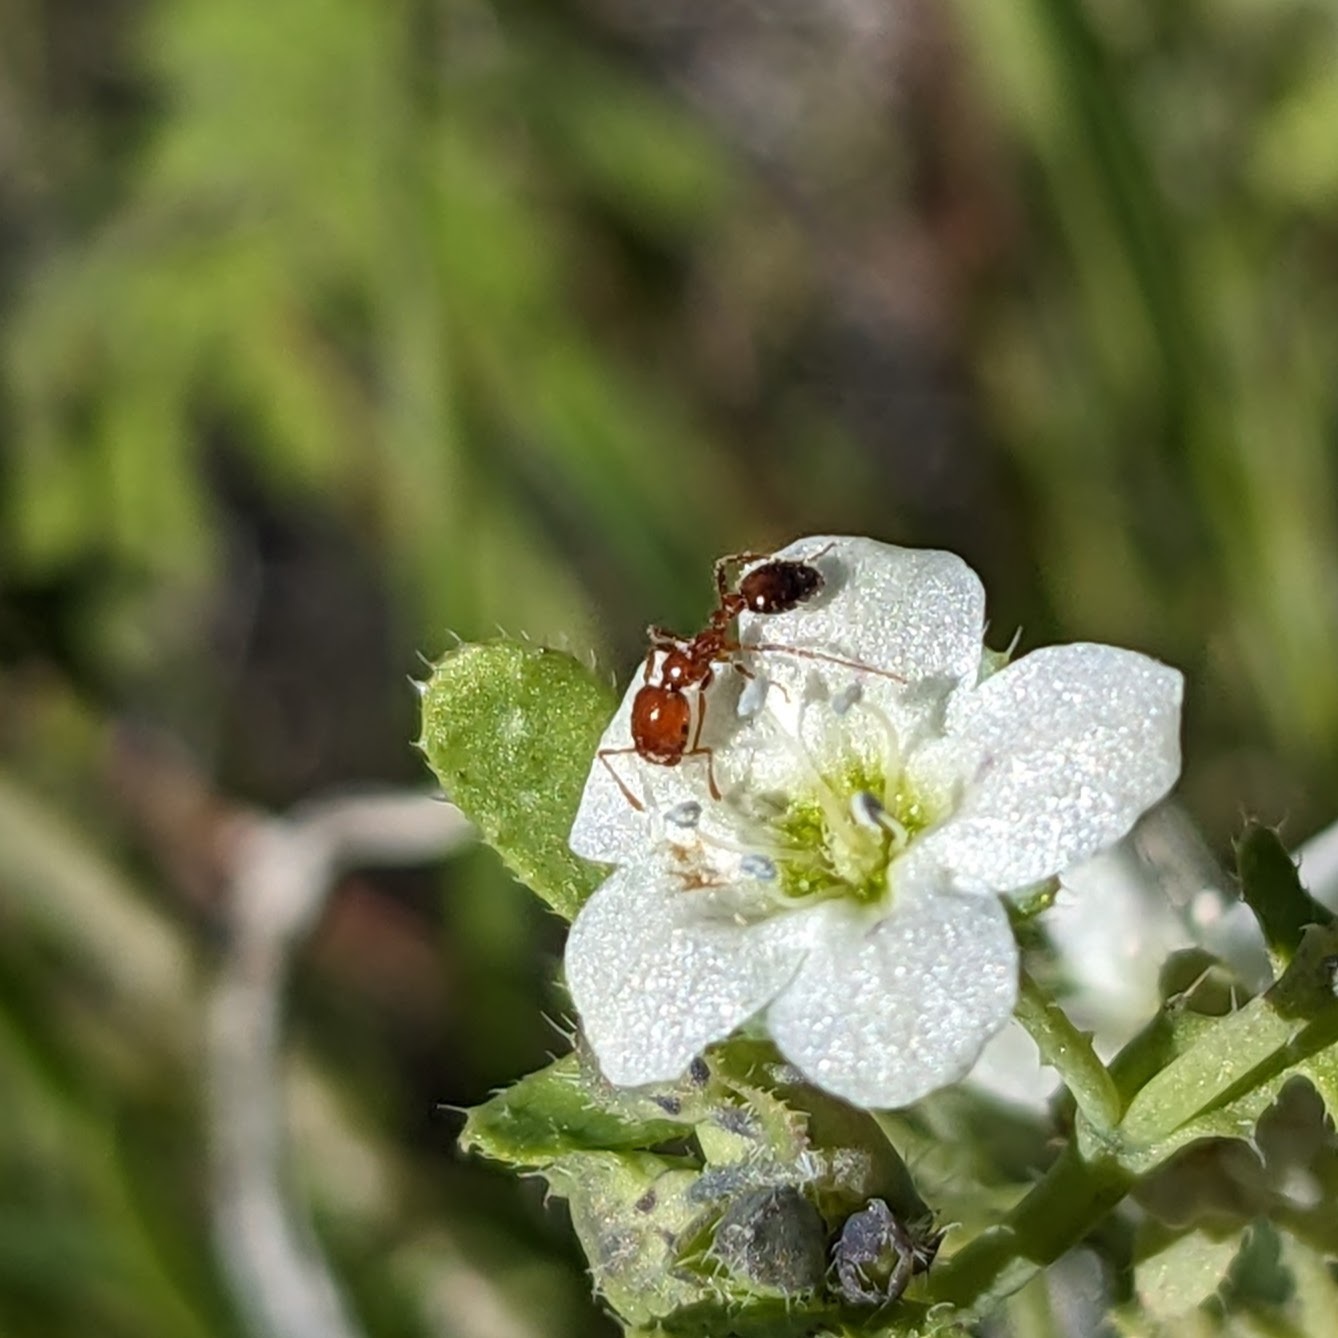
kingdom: Animalia
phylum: Arthropoda
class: Insecta
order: Hymenoptera
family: Formicidae
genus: Solenopsis
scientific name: Solenopsis xyloni
